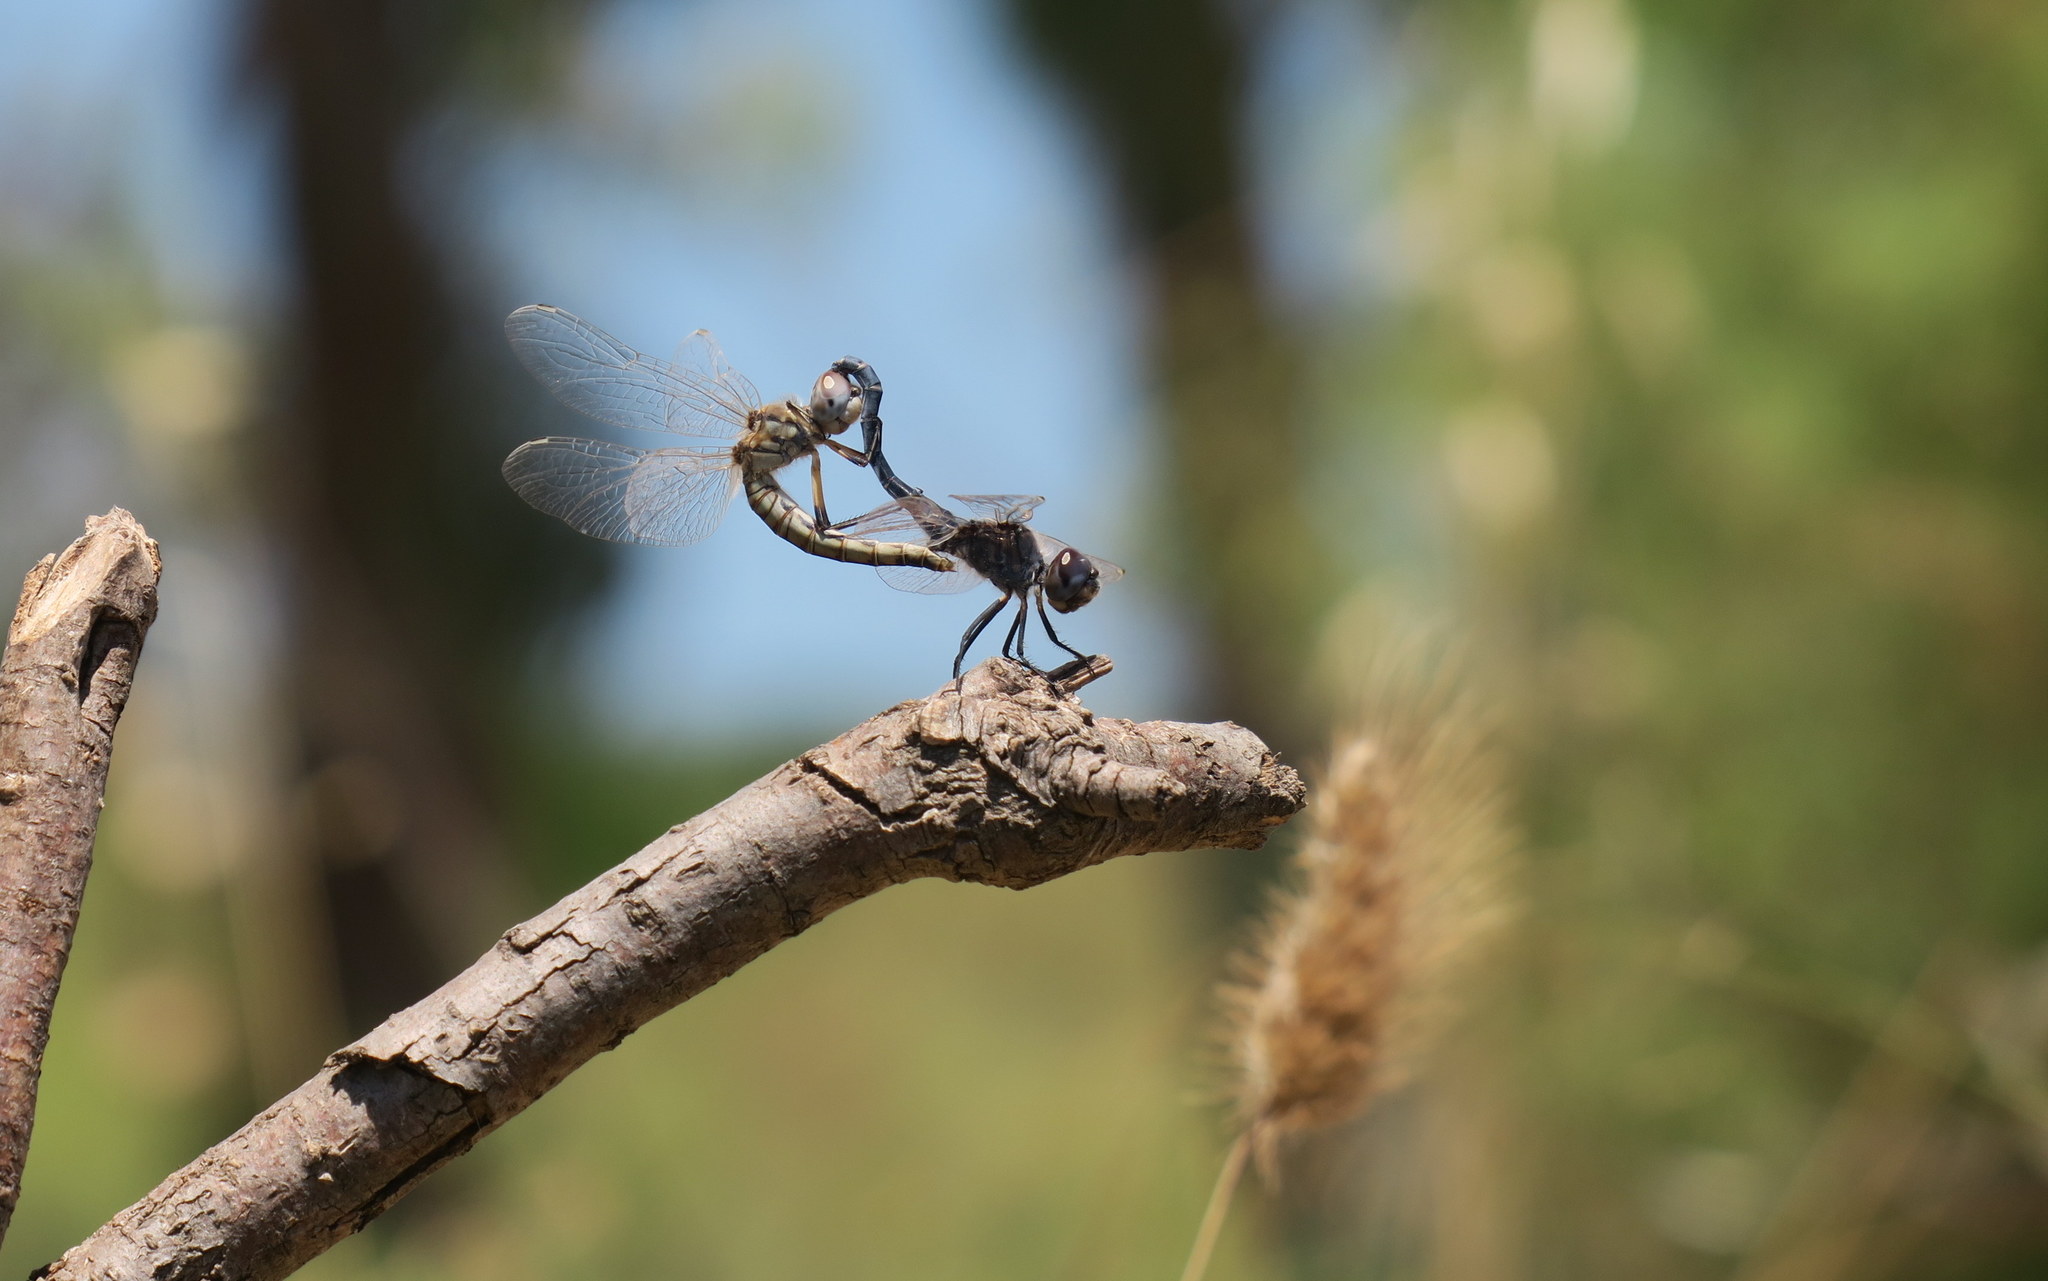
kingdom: Animalia
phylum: Arthropoda
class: Insecta
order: Odonata
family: Libellulidae
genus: Selysiothemis
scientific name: Selysiothemis nigra
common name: Black pennant
